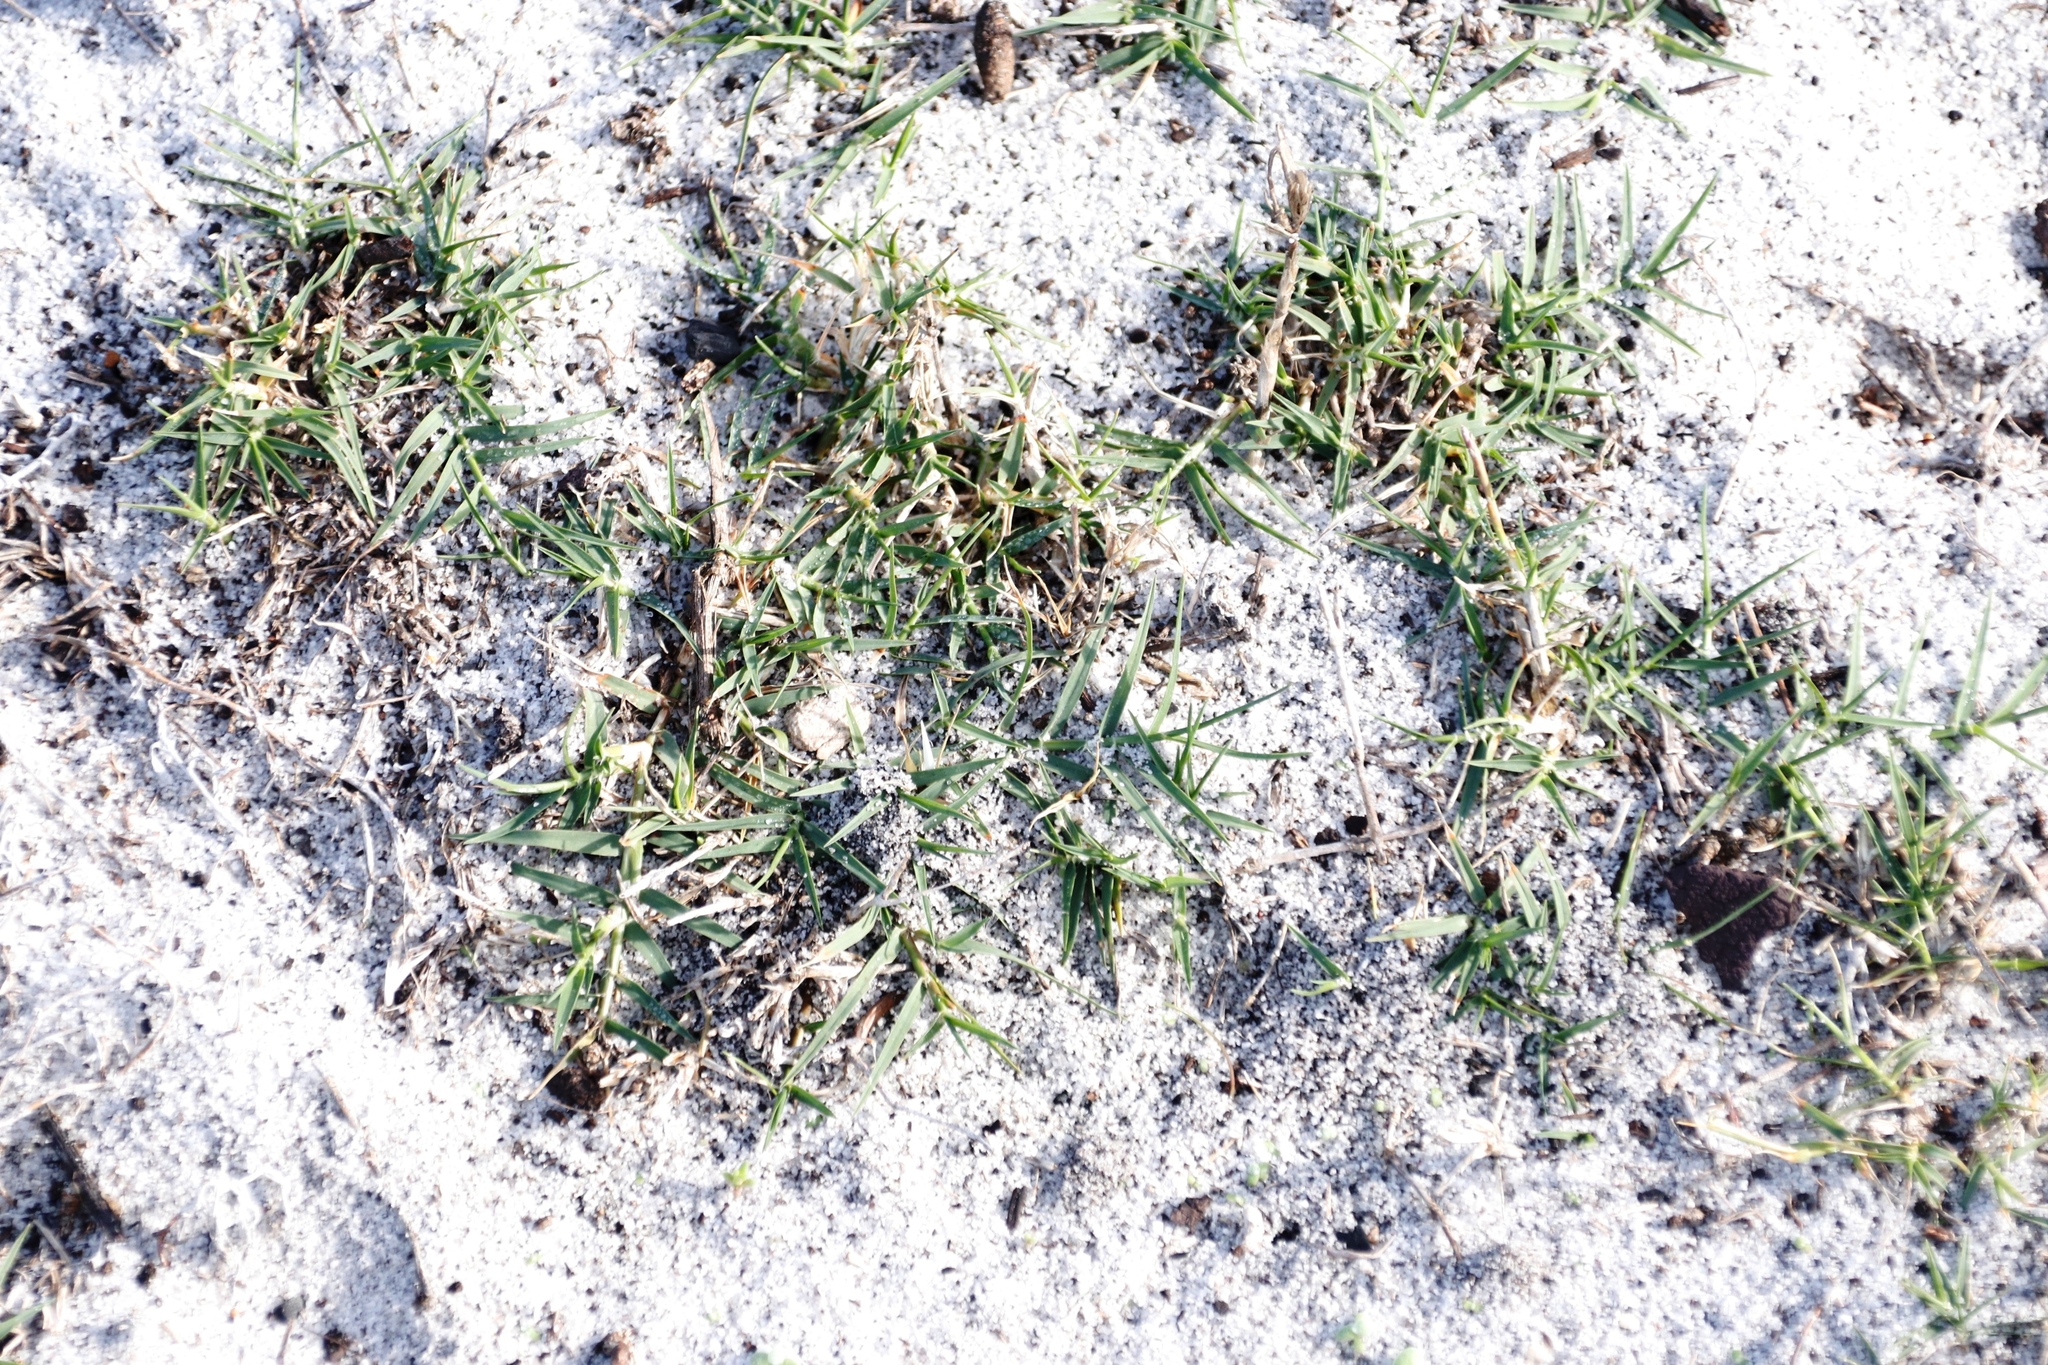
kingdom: Plantae
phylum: Tracheophyta
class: Liliopsida
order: Poales
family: Poaceae
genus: Cynodon
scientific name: Cynodon dactylon
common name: Bermuda grass
